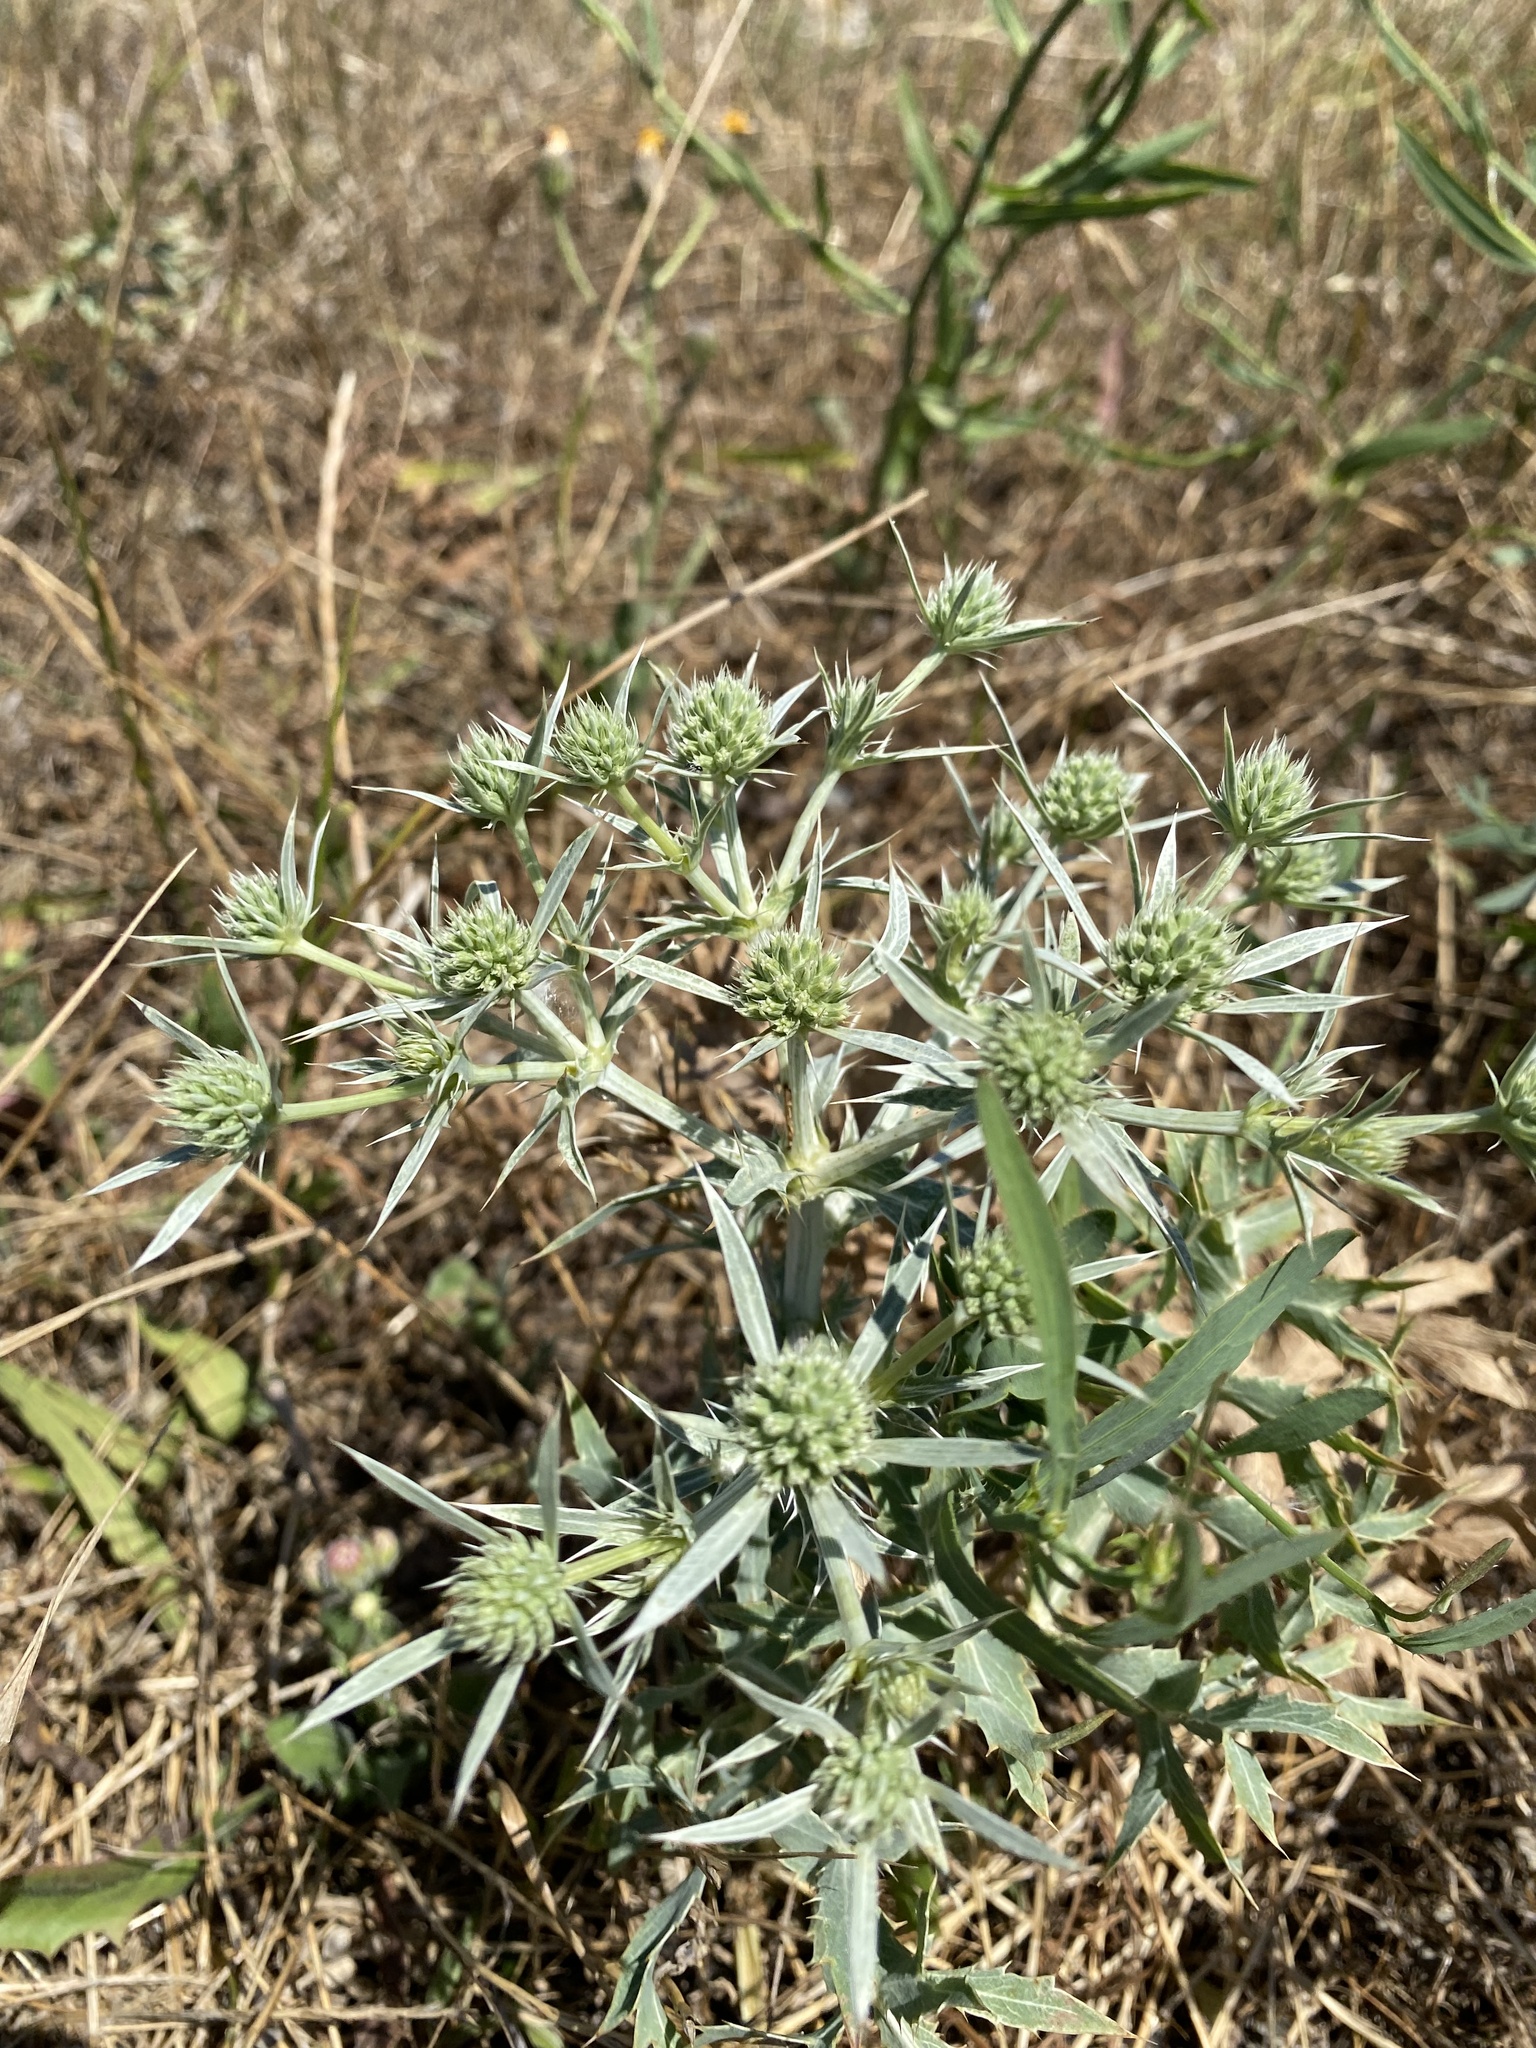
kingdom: Plantae
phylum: Tracheophyta
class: Magnoliopsida
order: Apiales
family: Apiaceae
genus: Eryngium
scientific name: Eryngium campestre
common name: Field eryngo
